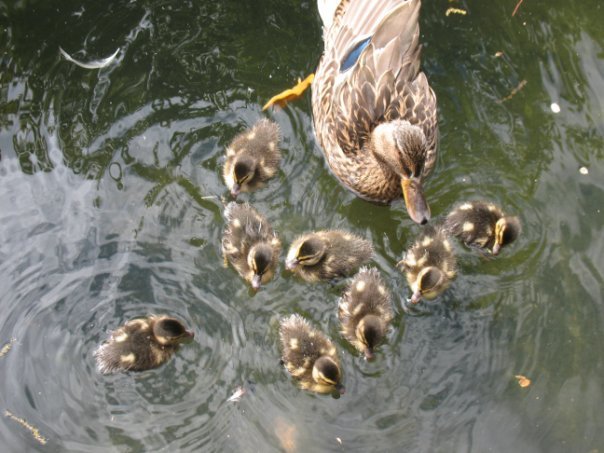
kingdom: Animalia
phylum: Chordata
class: Aves
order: Anseriformes
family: Anatidae
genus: Anas
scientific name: Anas platyrhynchos
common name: Mallard
